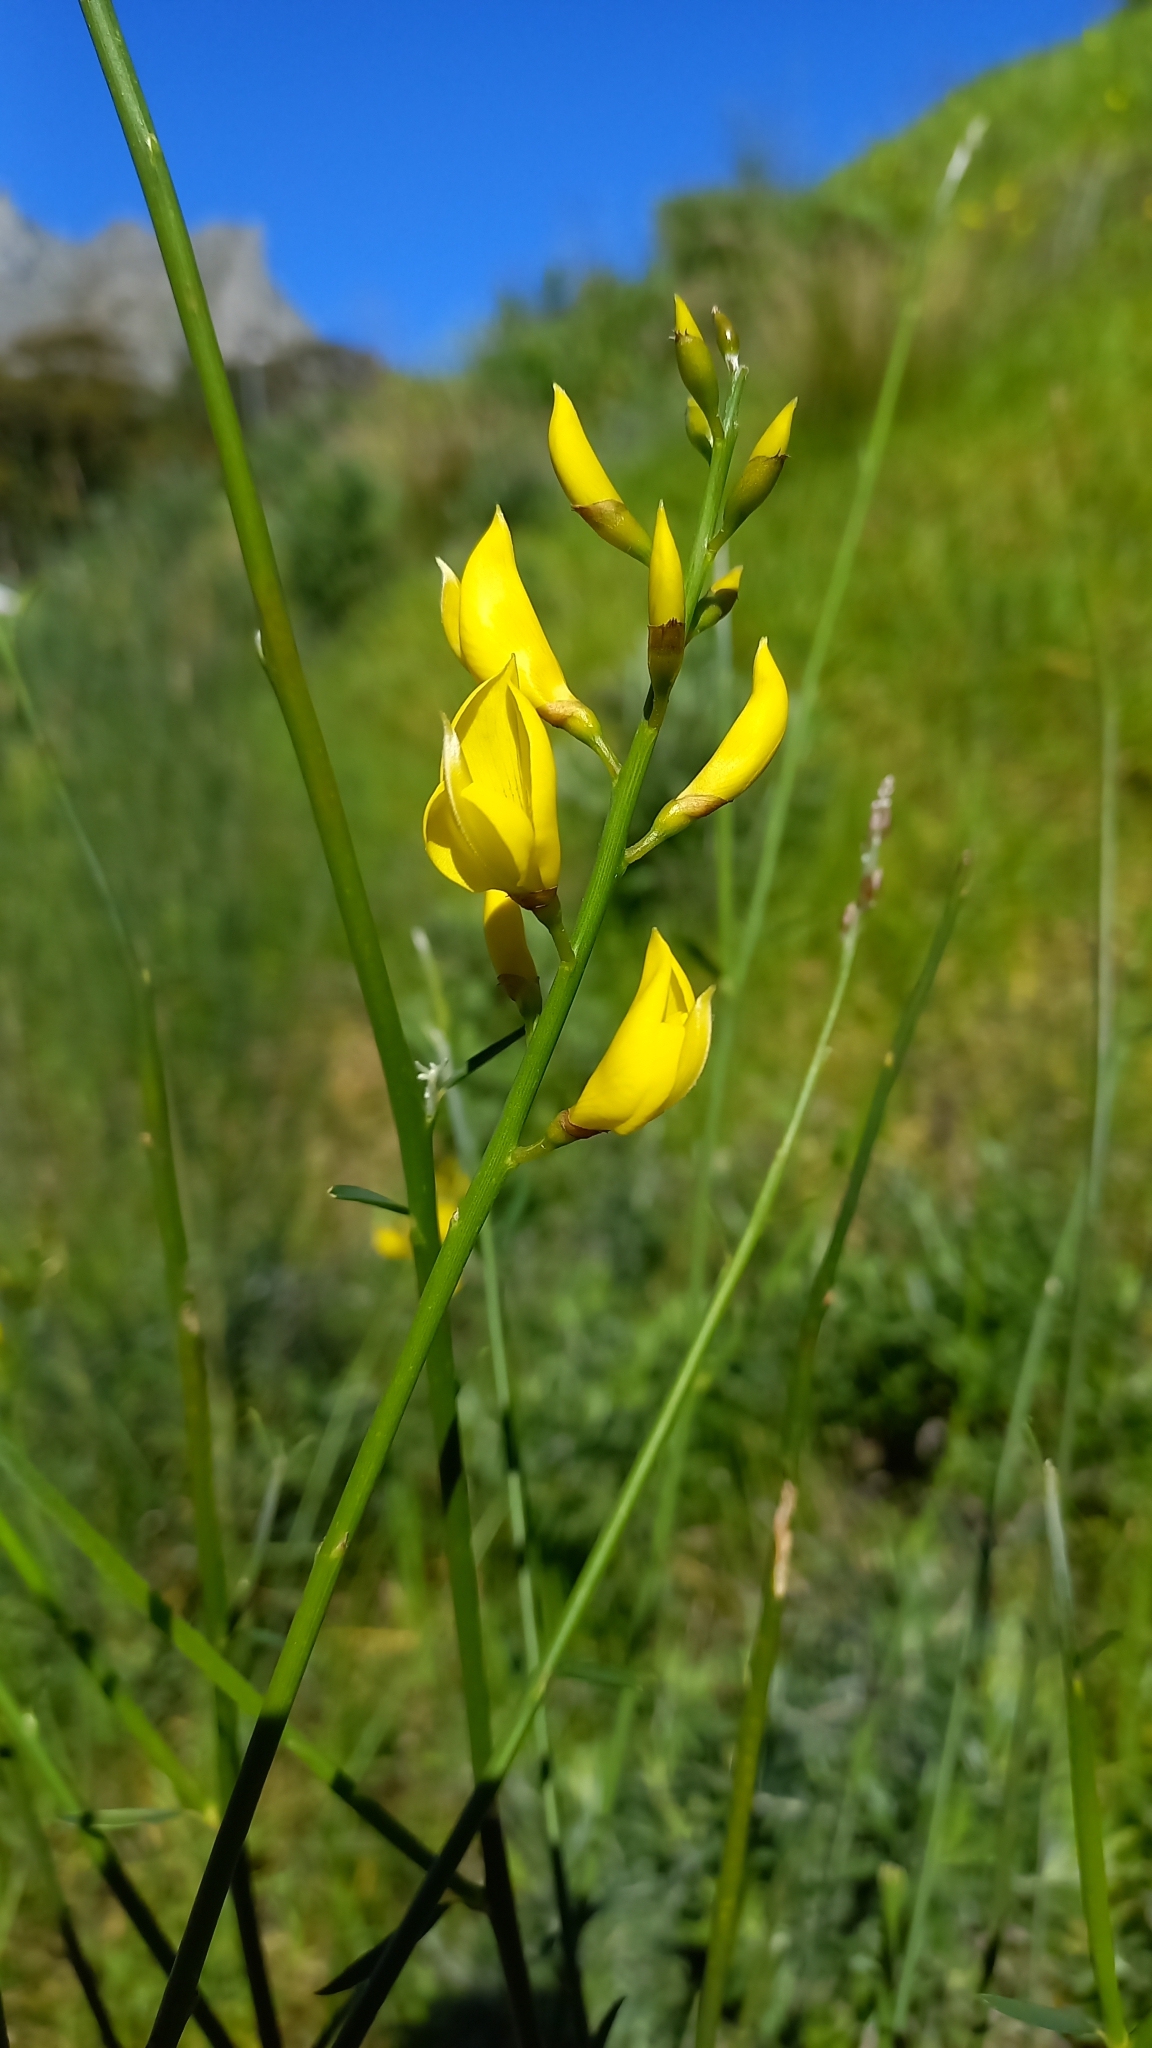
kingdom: Plantae
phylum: Tracheophyta
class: Magnoliopsida
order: Fabales
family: Fabaceae
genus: Spartium
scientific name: Spartium junceum
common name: Spanish broom
